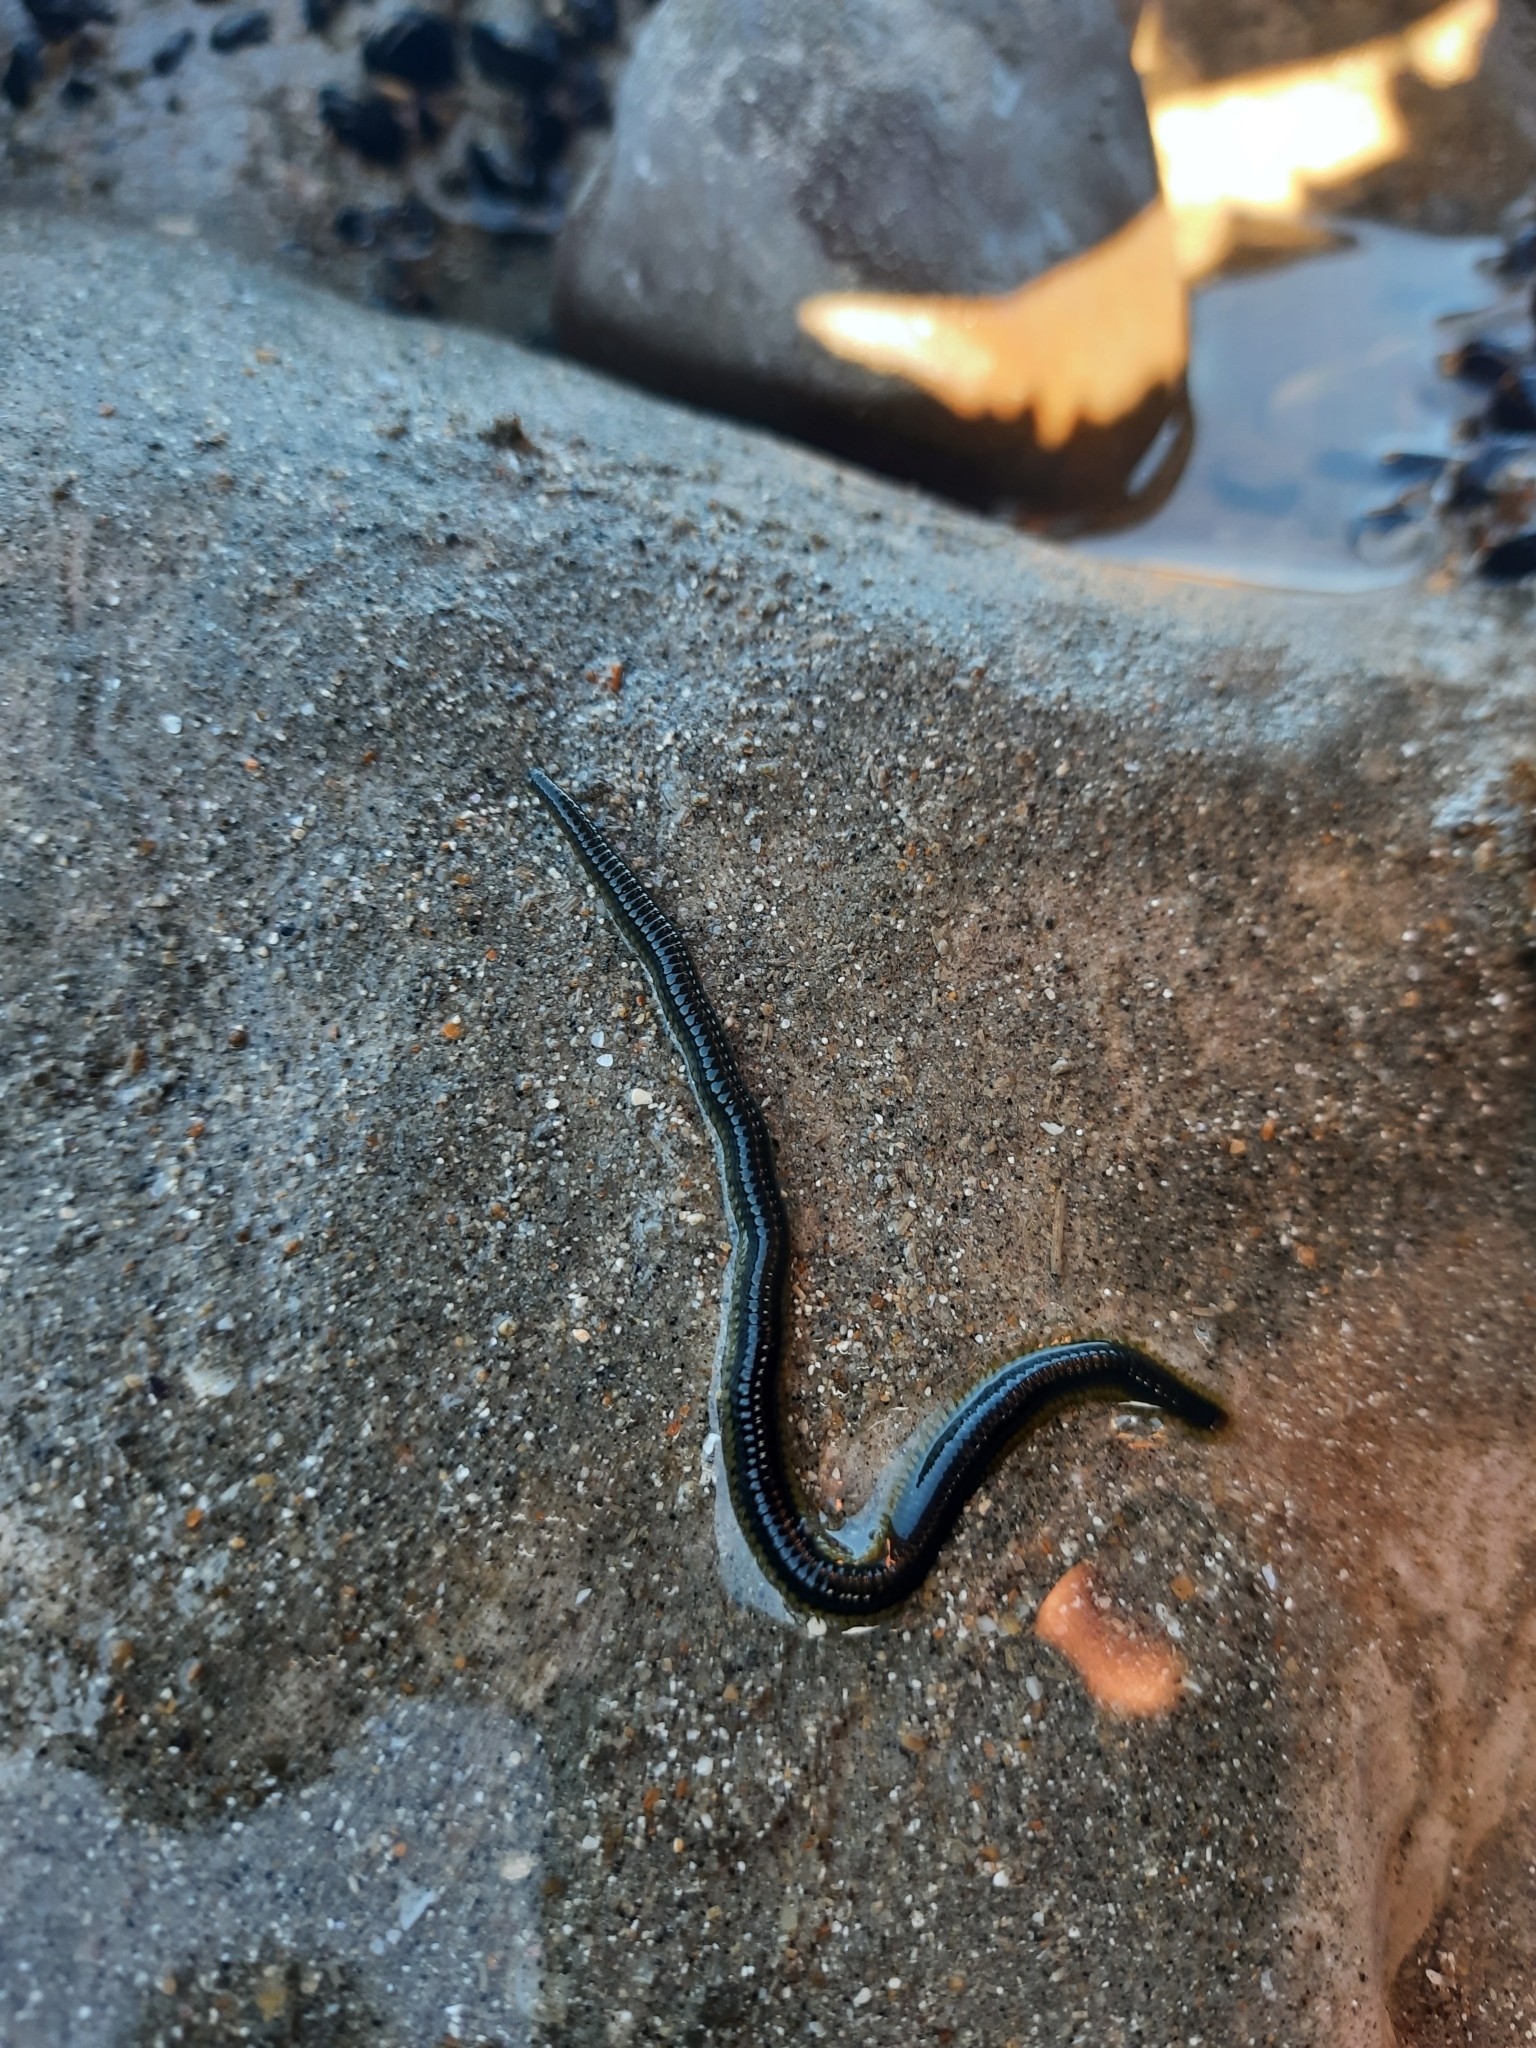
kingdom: Animalia
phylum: Annelida
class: Polychaeta
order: Phyllodocida
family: Phyllodocidae
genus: Eulalia
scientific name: Eulalia microphylla
